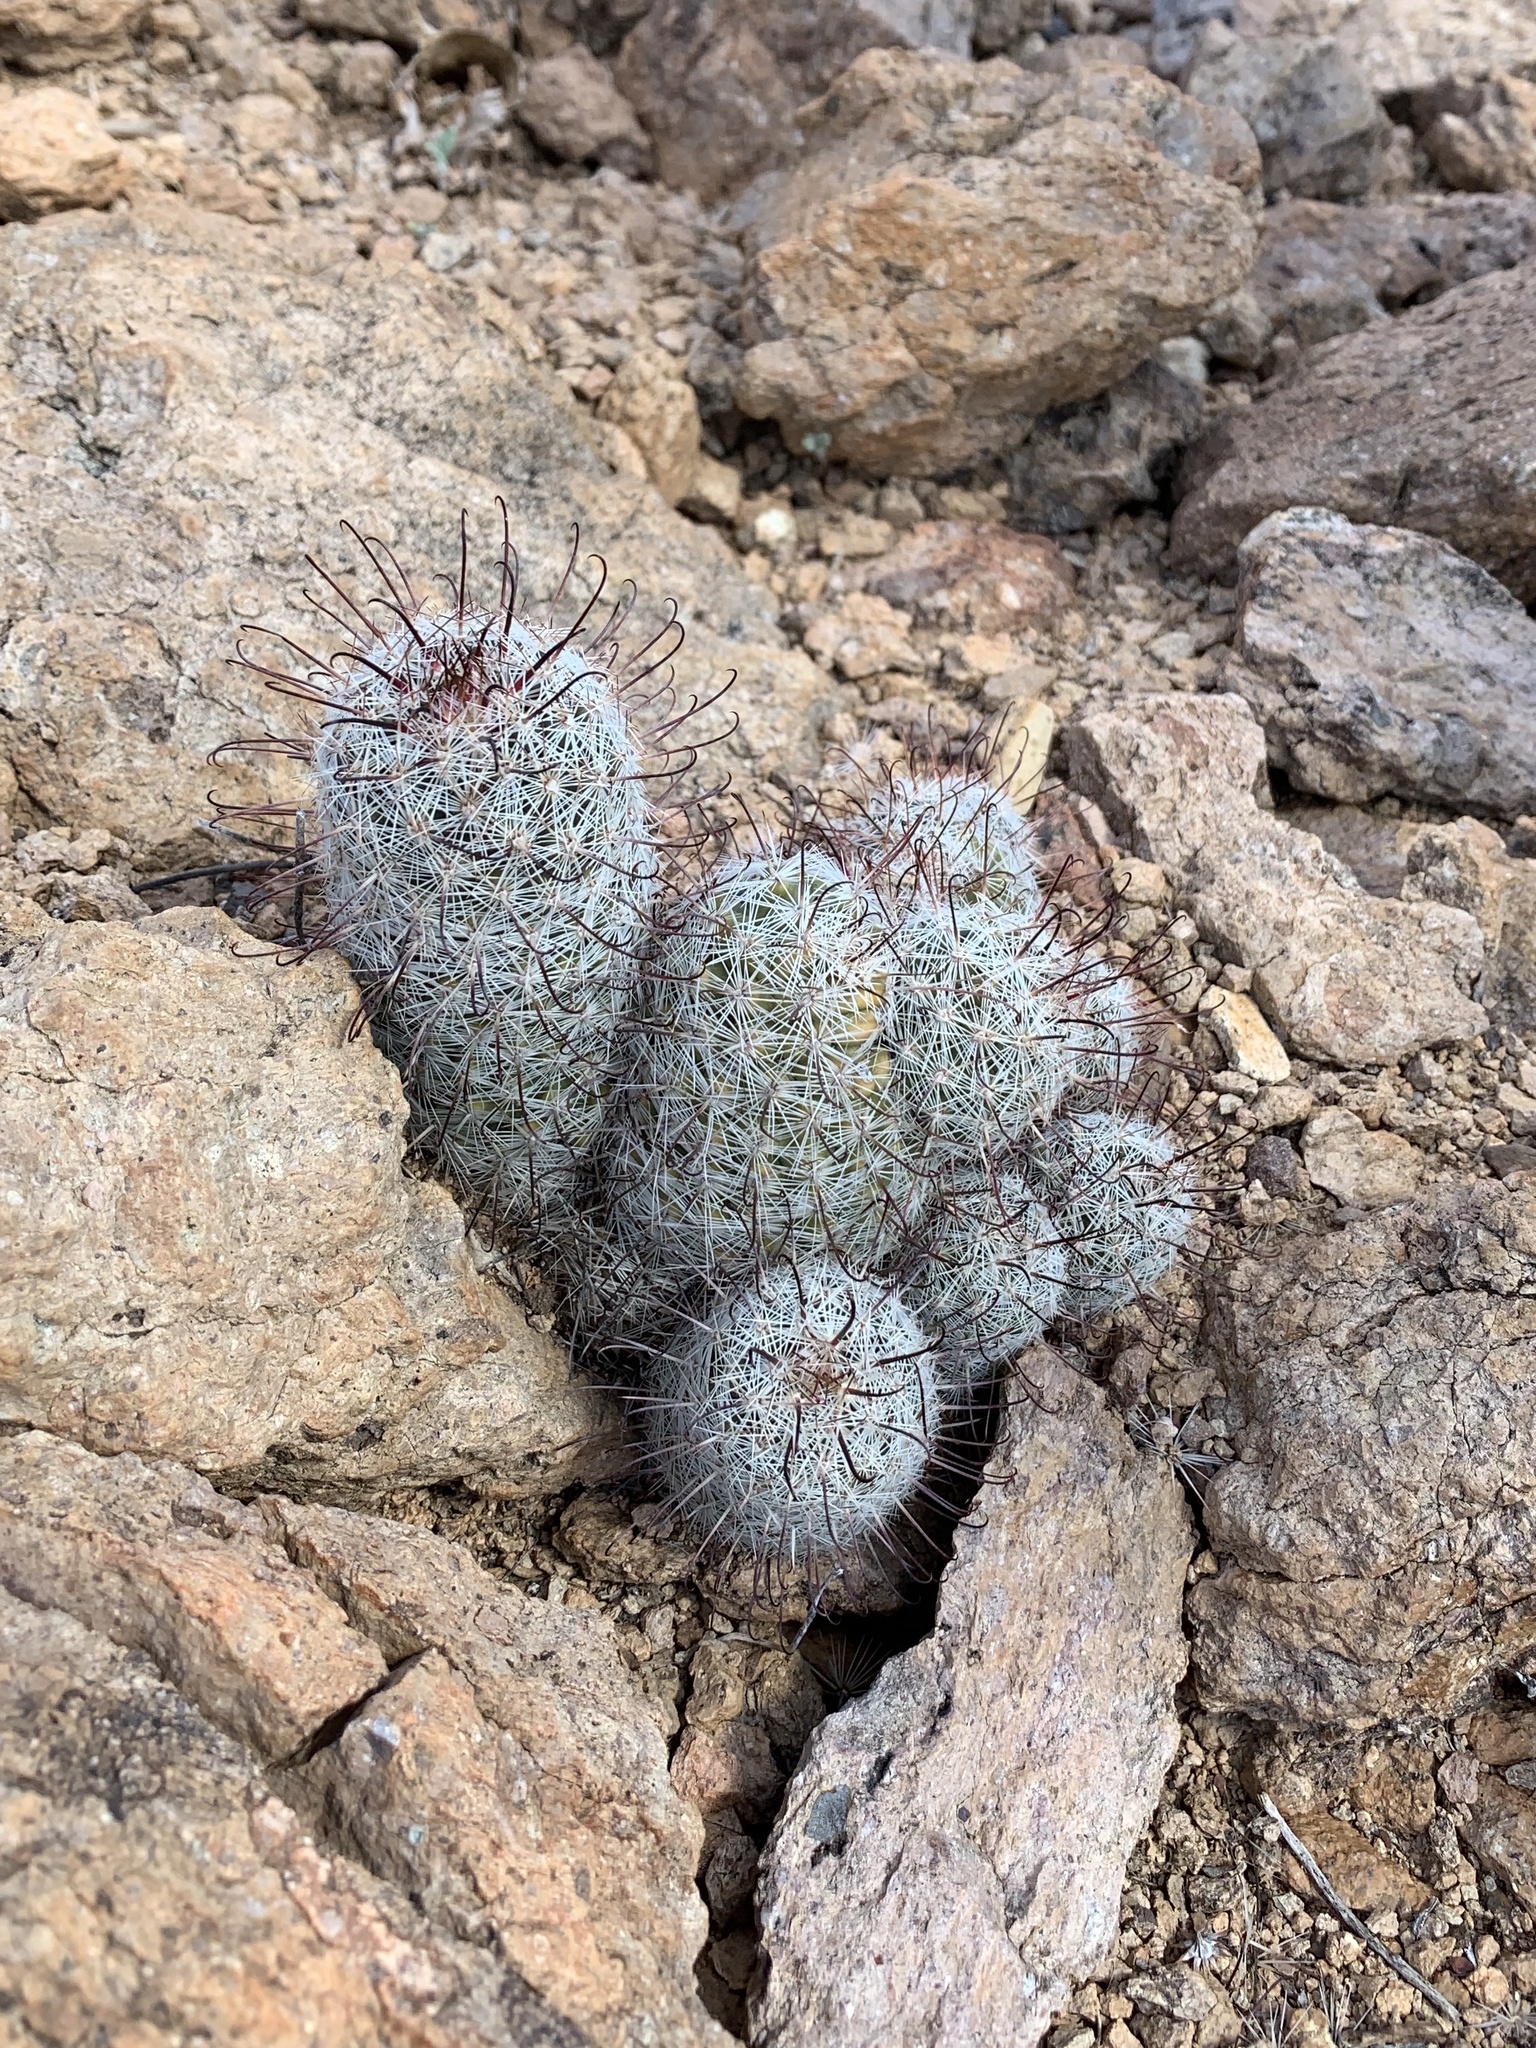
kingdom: Plantae
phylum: Tracheophyta
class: Magnoliopsida
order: Caryophyllales
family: Cactaceae
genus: Cochemiea
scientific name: Cochemiea grahamii
